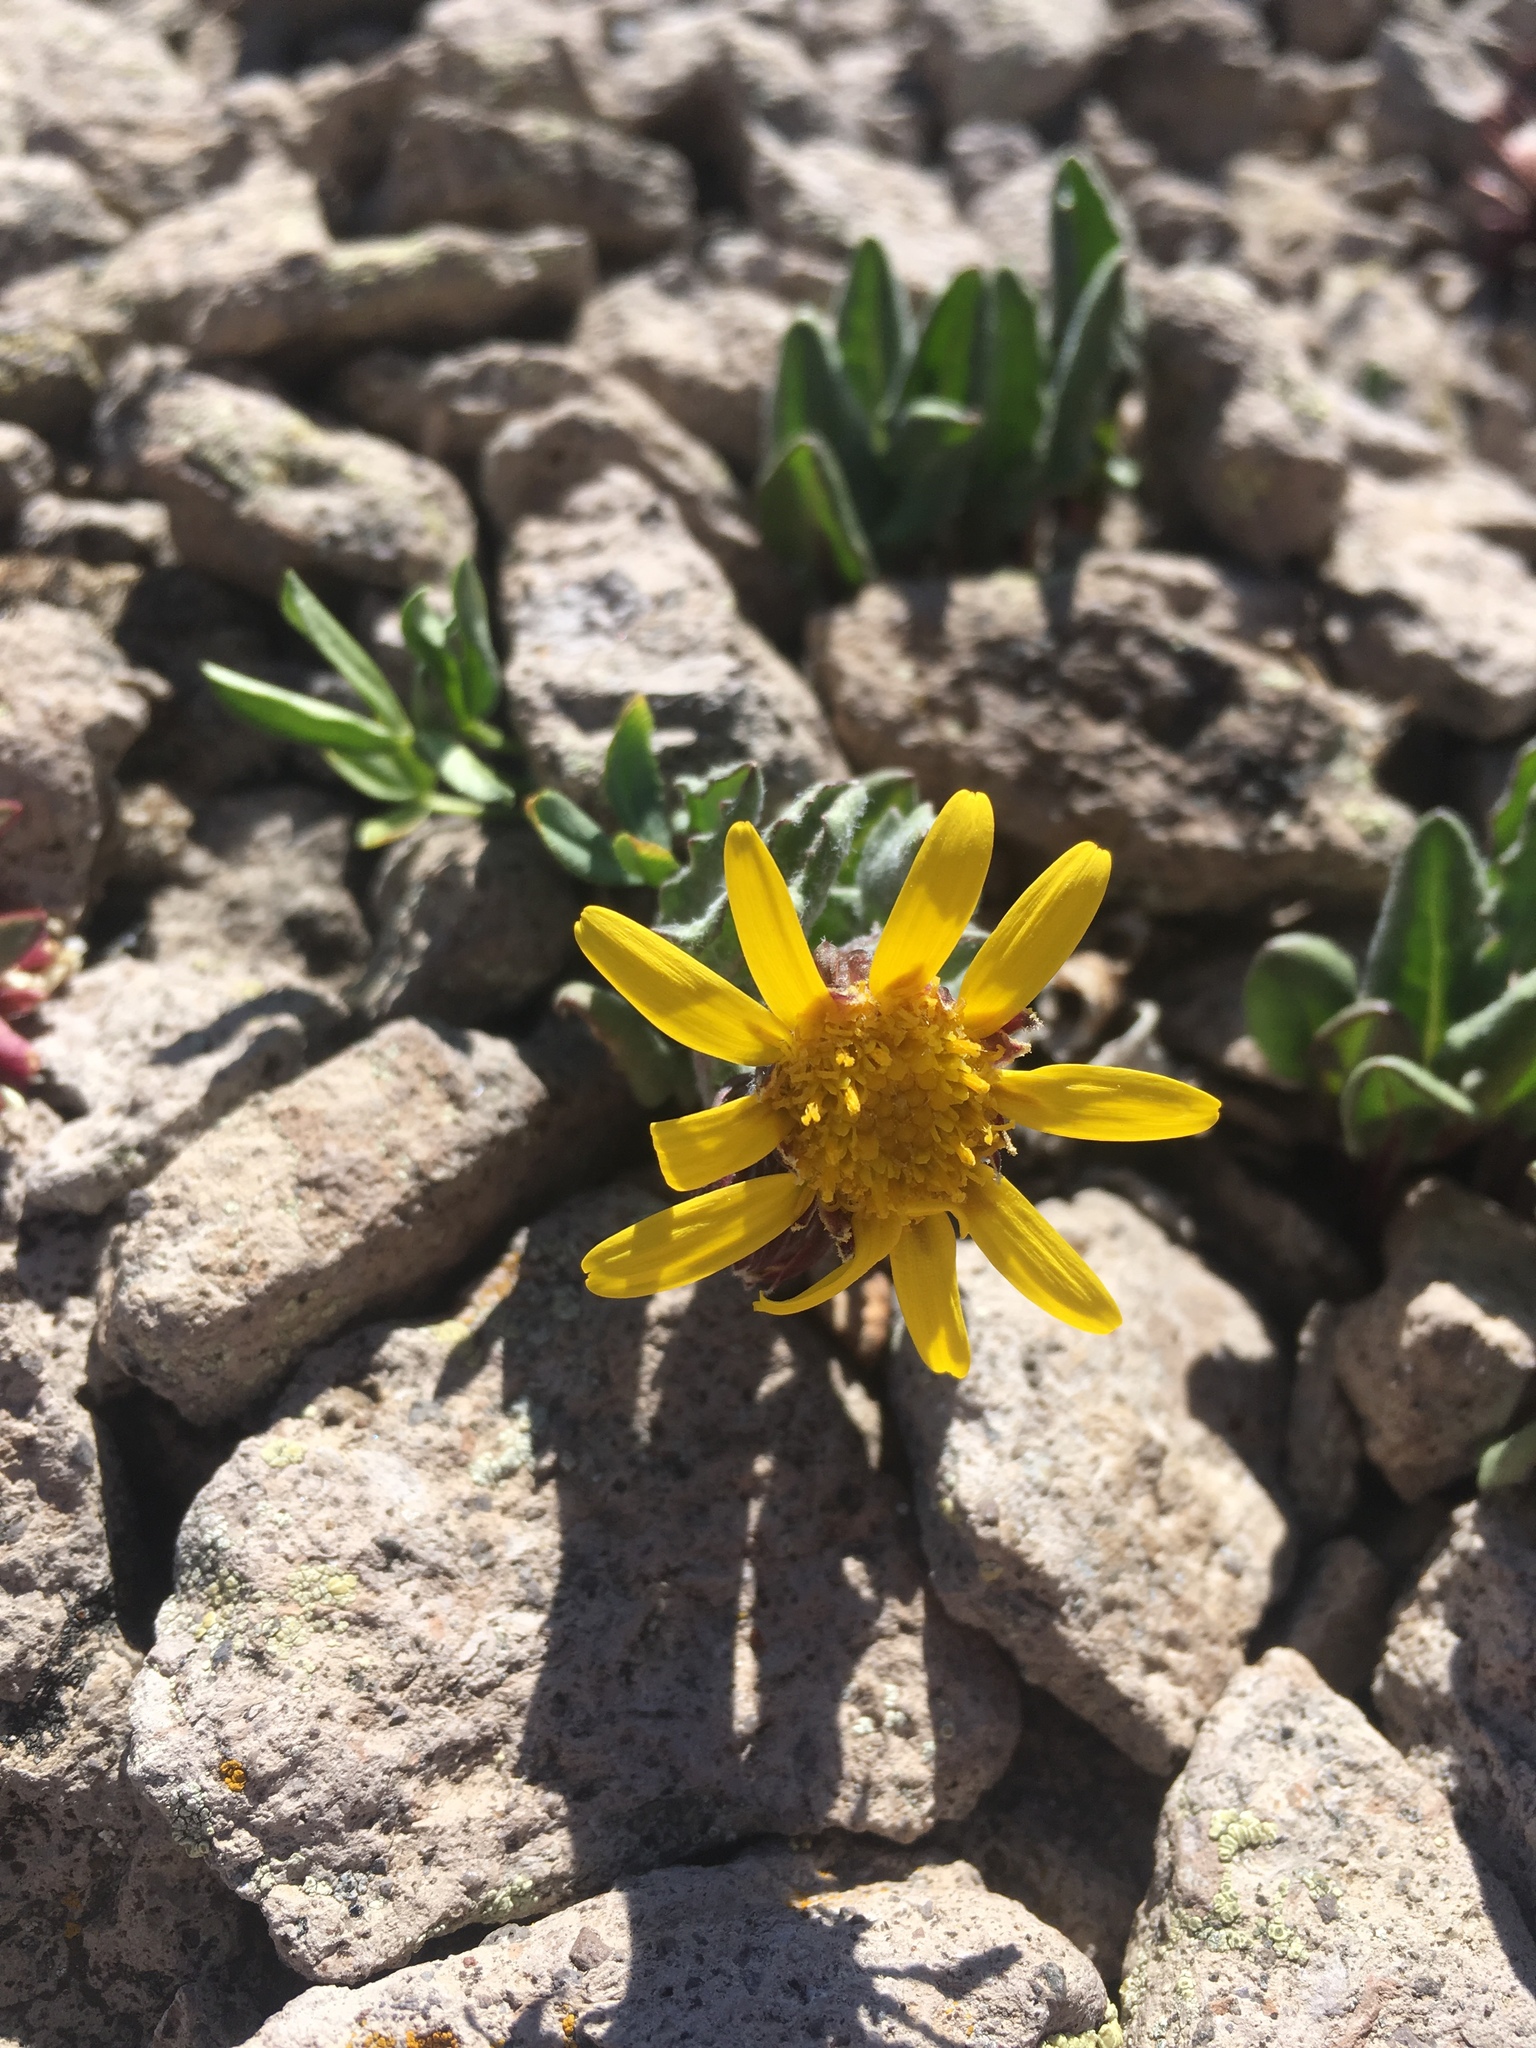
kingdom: Plantae
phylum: Tracheophyta
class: Magnoliopsida
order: Asterales
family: Asteraceae
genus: Senecio
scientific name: Senecio taraxacoides
